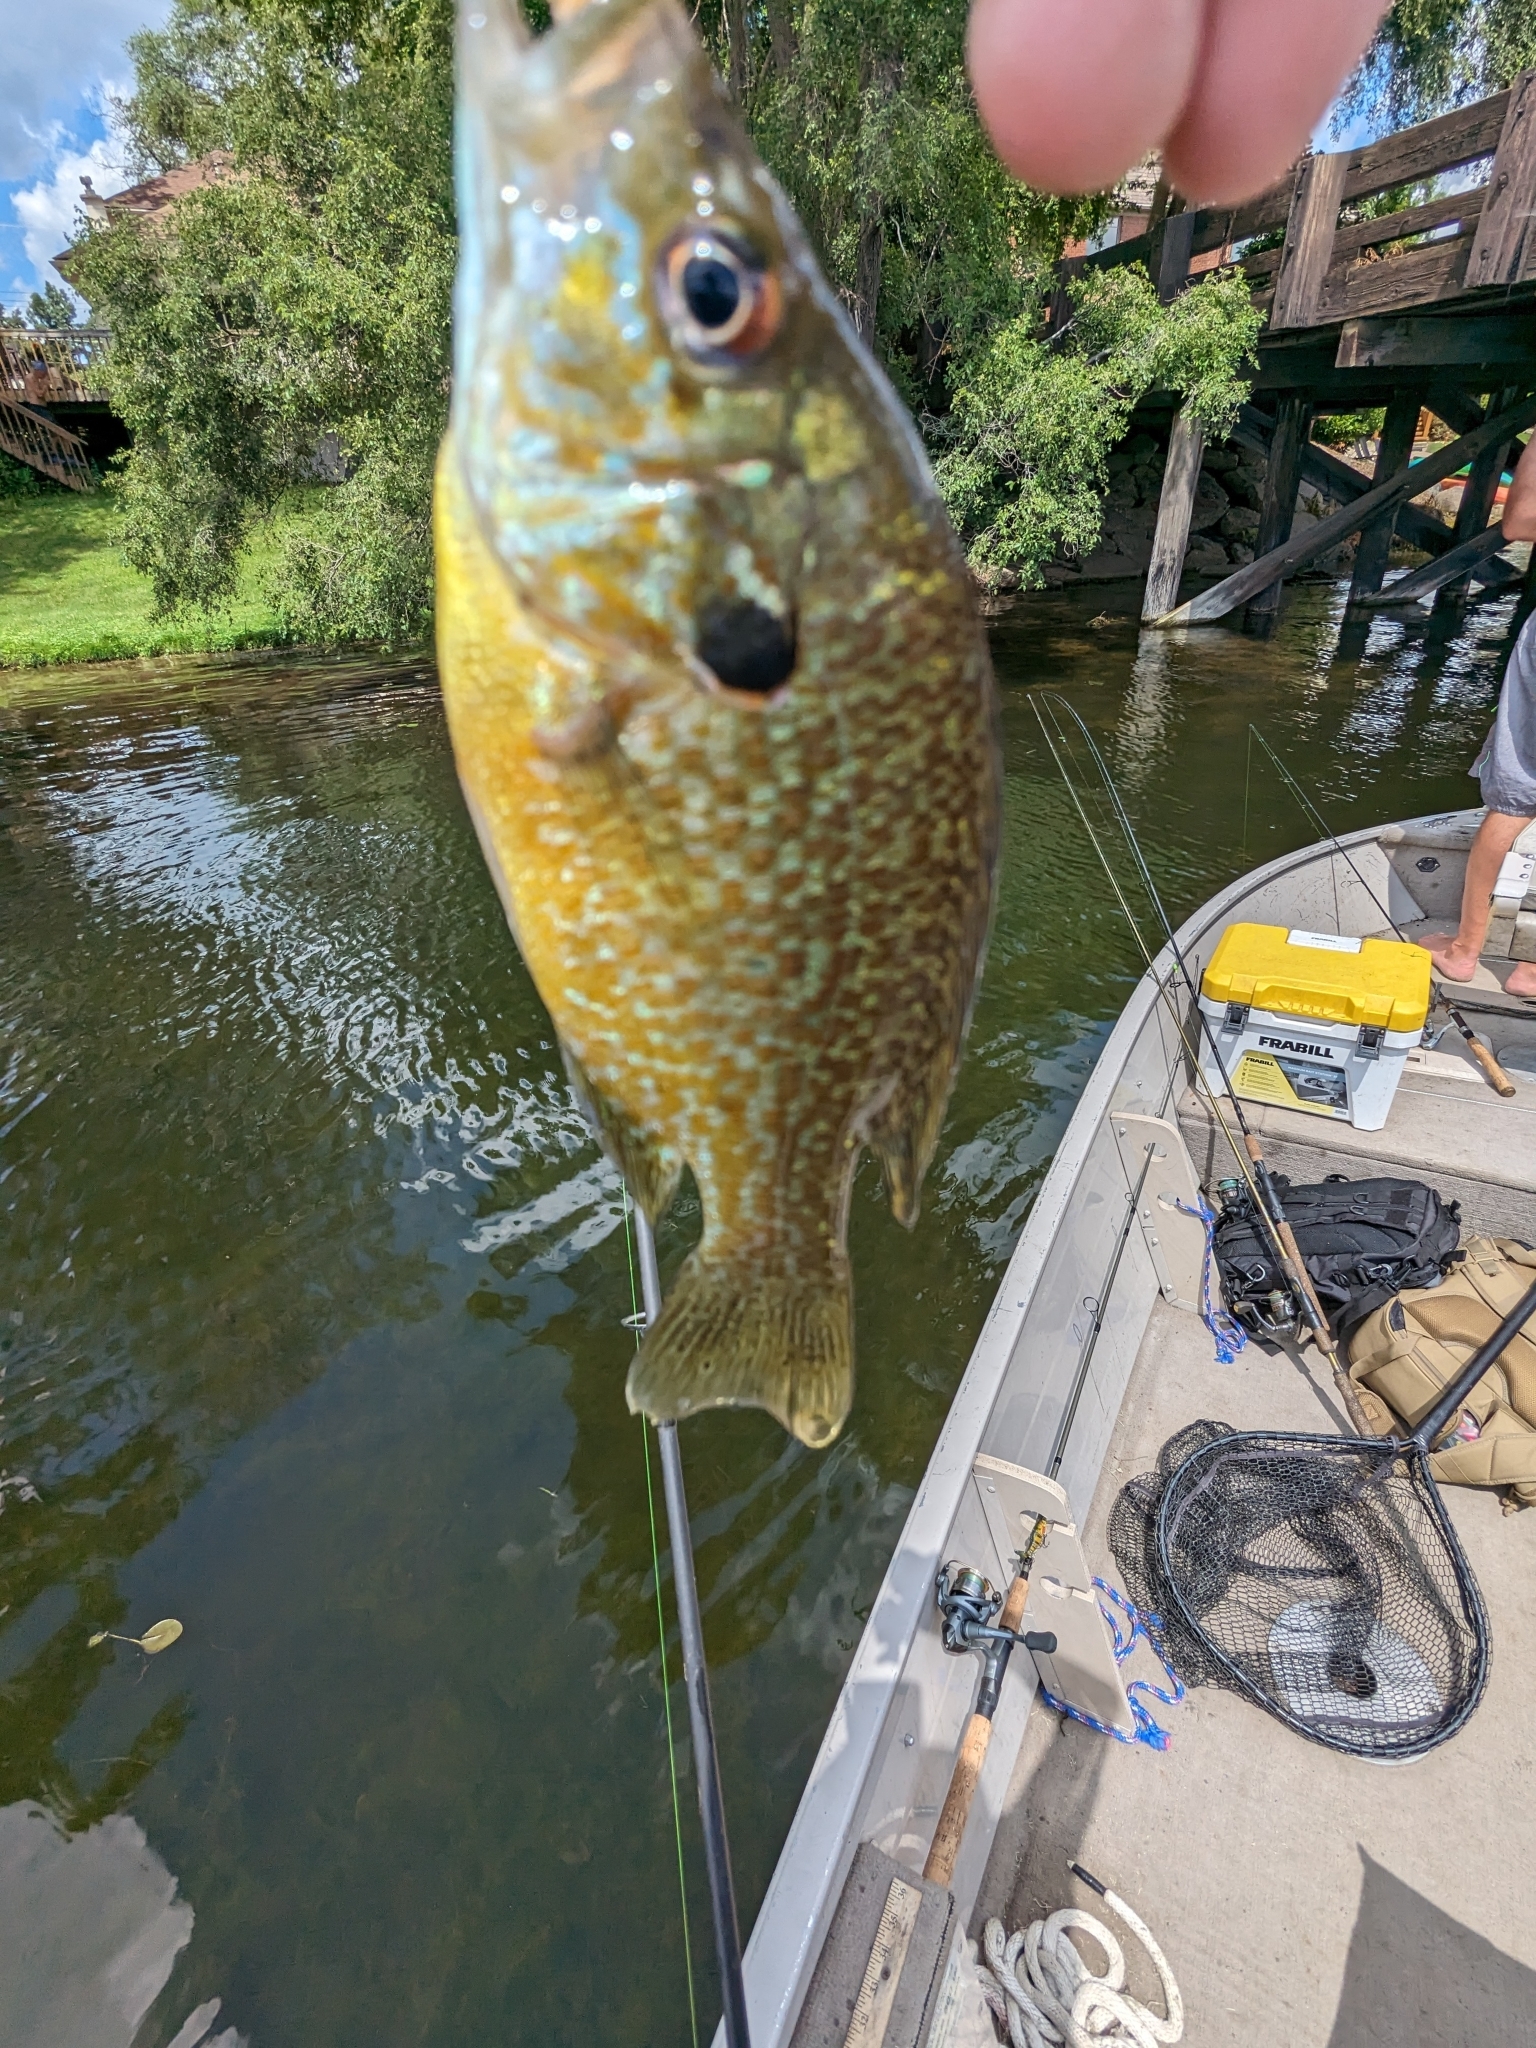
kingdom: Animalia
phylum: Chordata
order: Perciformes
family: Centrarchidae
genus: Lepomis
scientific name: Lepomis
